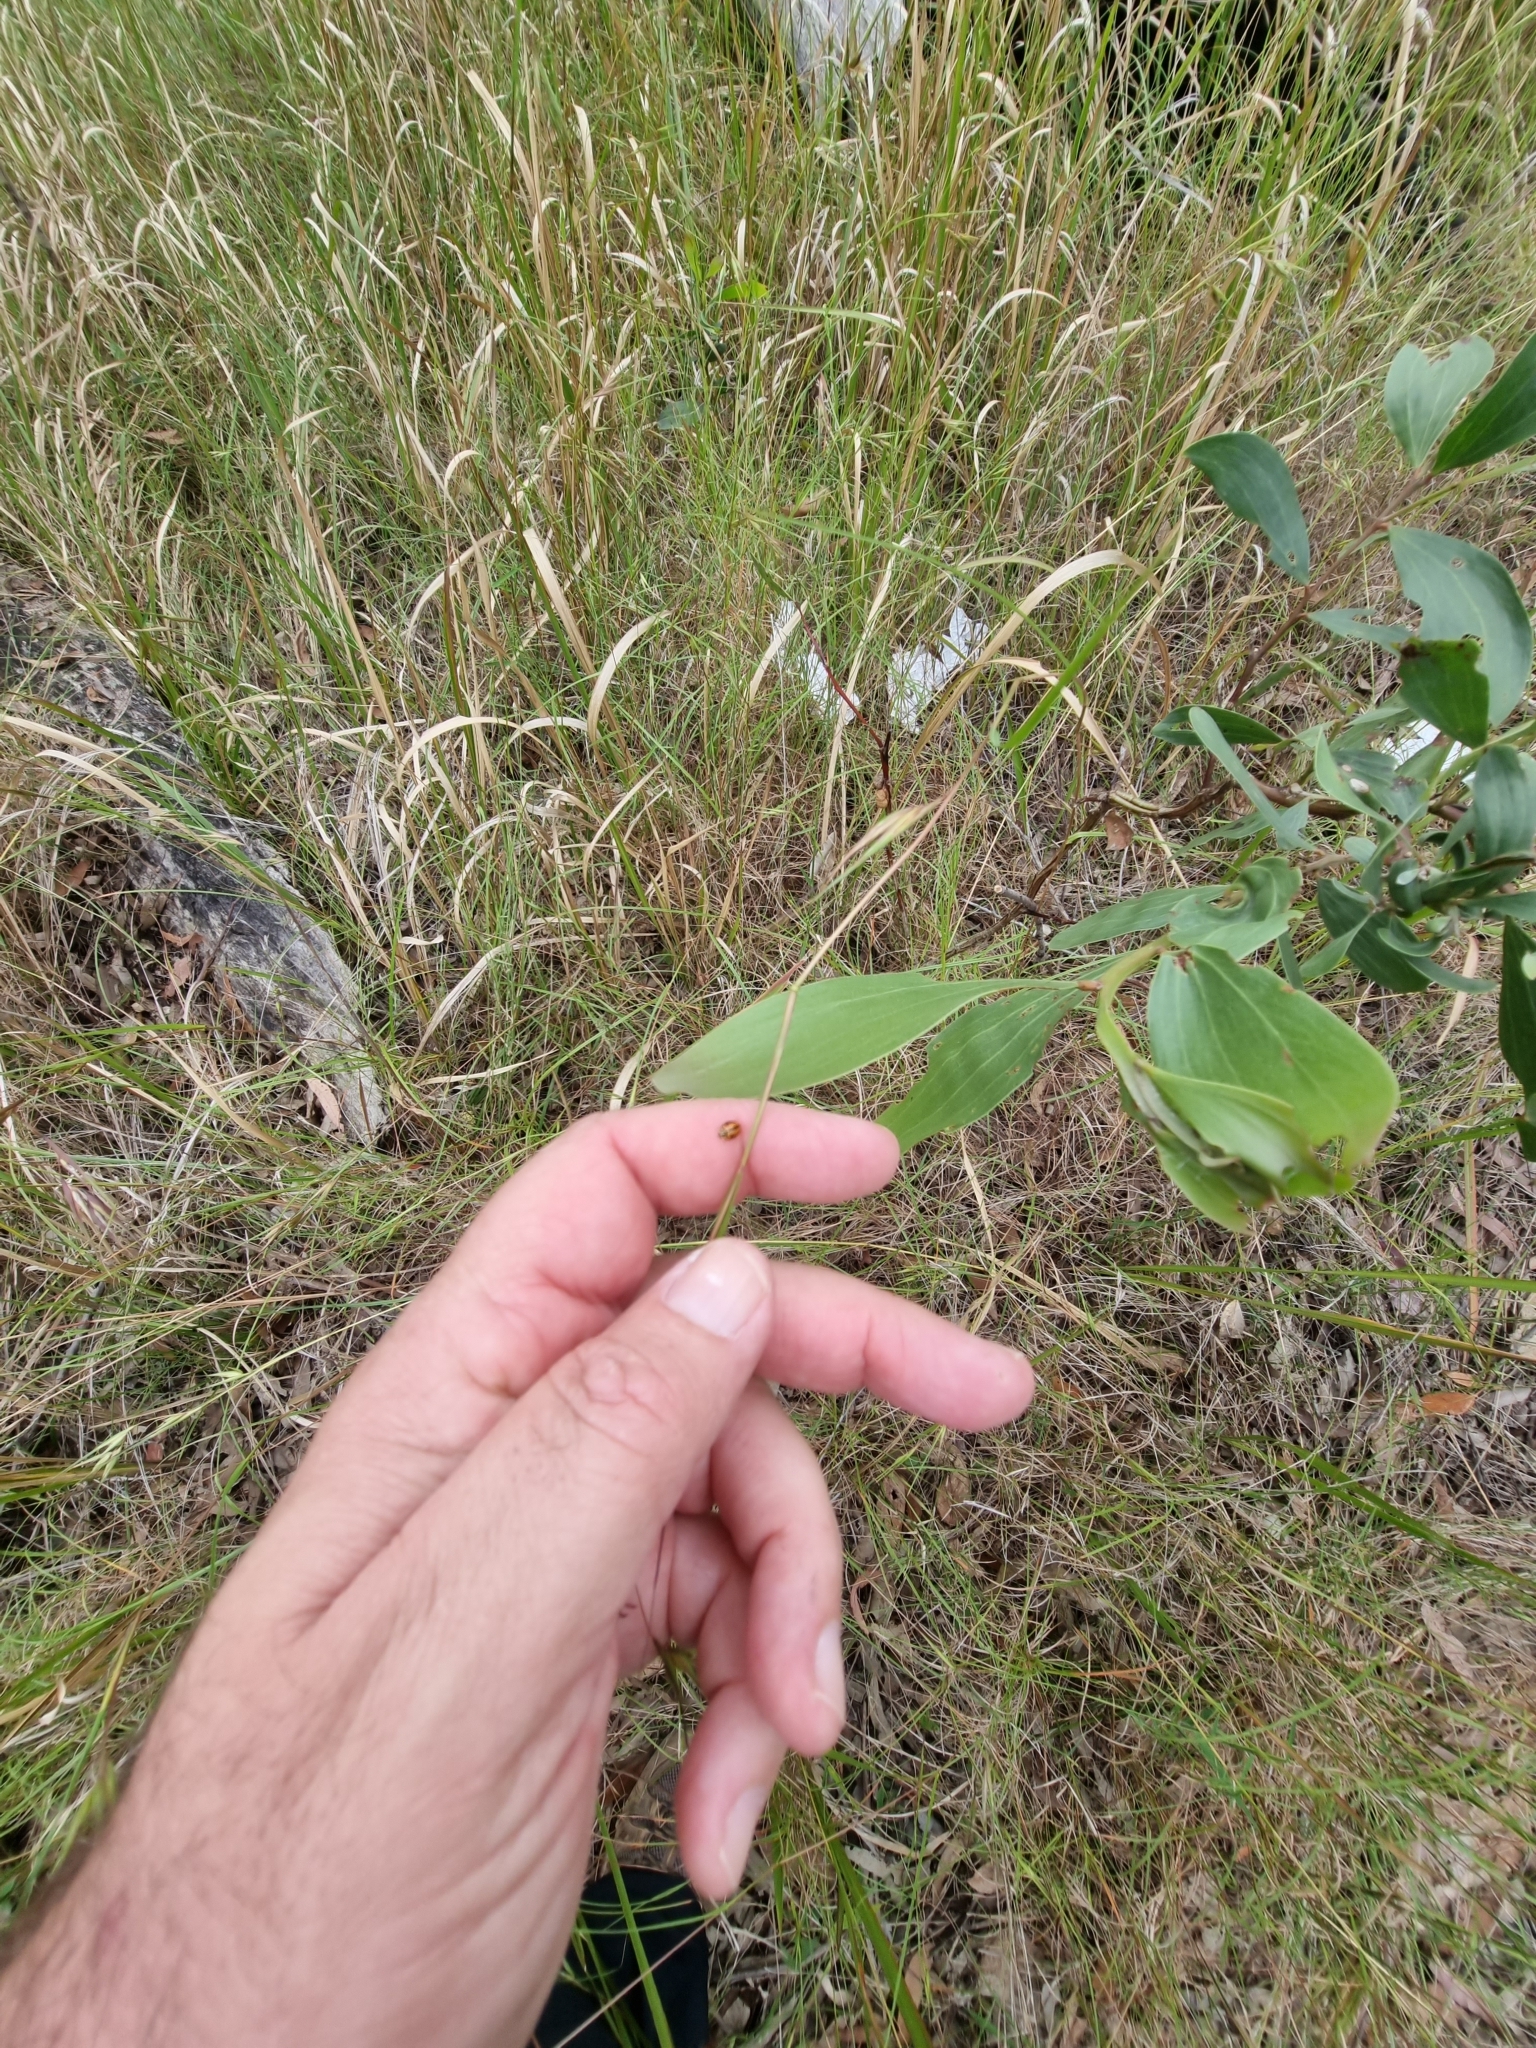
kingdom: Animalia
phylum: Arthropoda
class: Insecta
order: Coleoptera
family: Coccinellidae
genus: Micraspis
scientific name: Micraspis frenata
